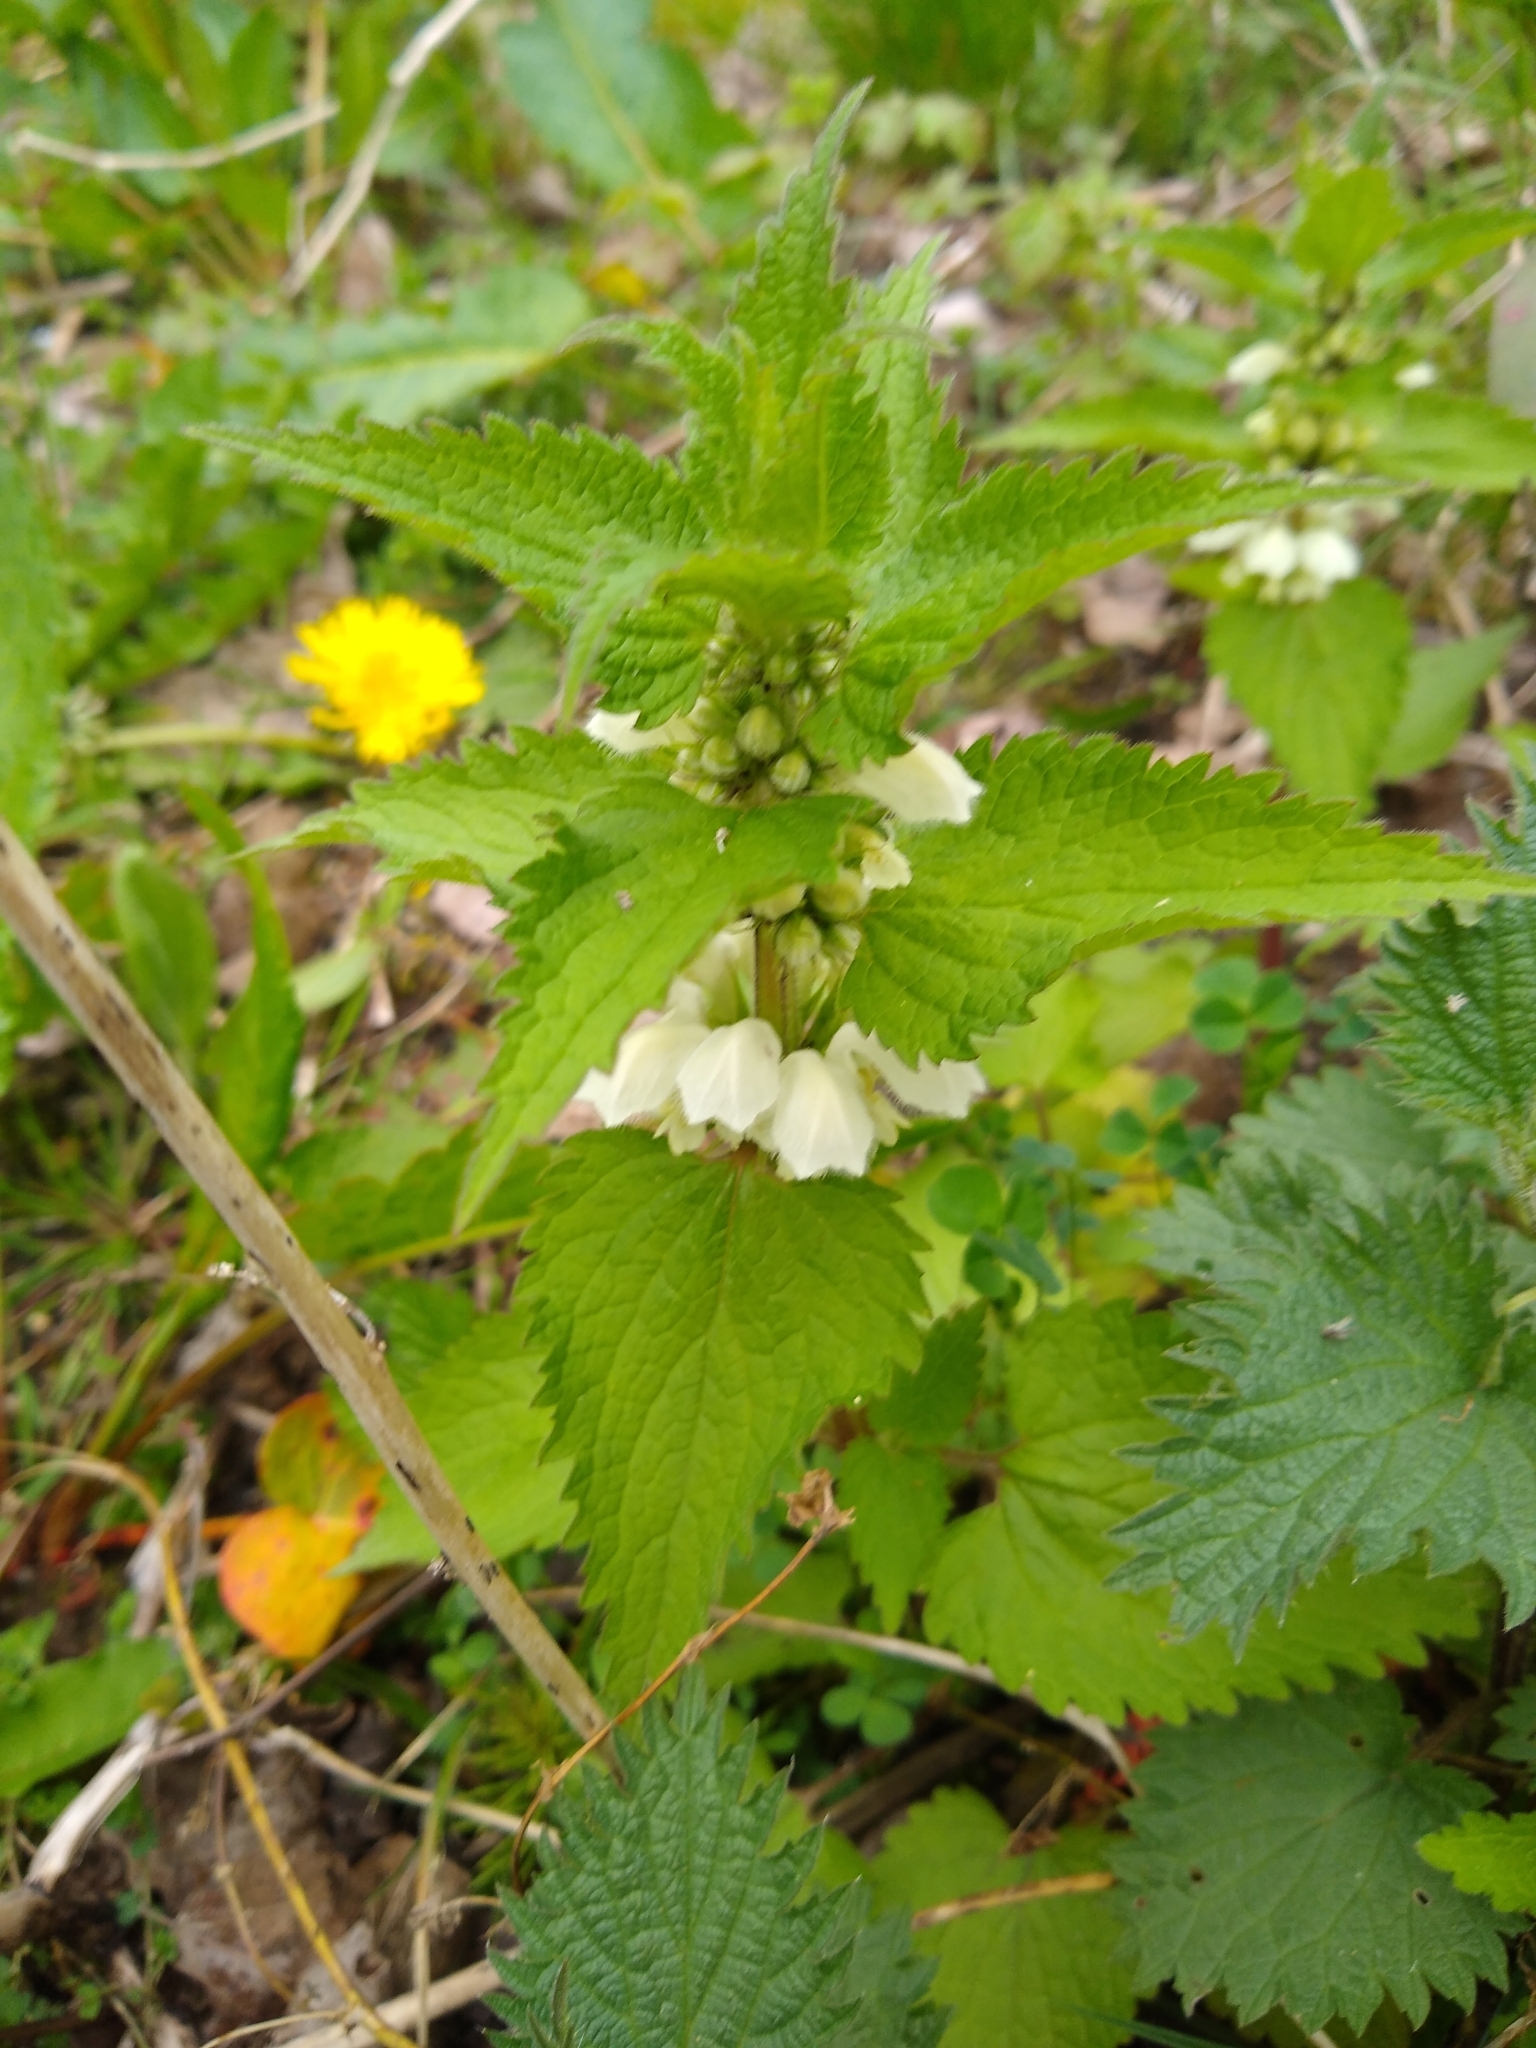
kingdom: Plantae
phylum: Tracheophyta
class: Magnoliopsida
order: Lamiales
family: Lamiaceae
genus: Lamium
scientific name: Lamium album
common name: White dead-nettle
